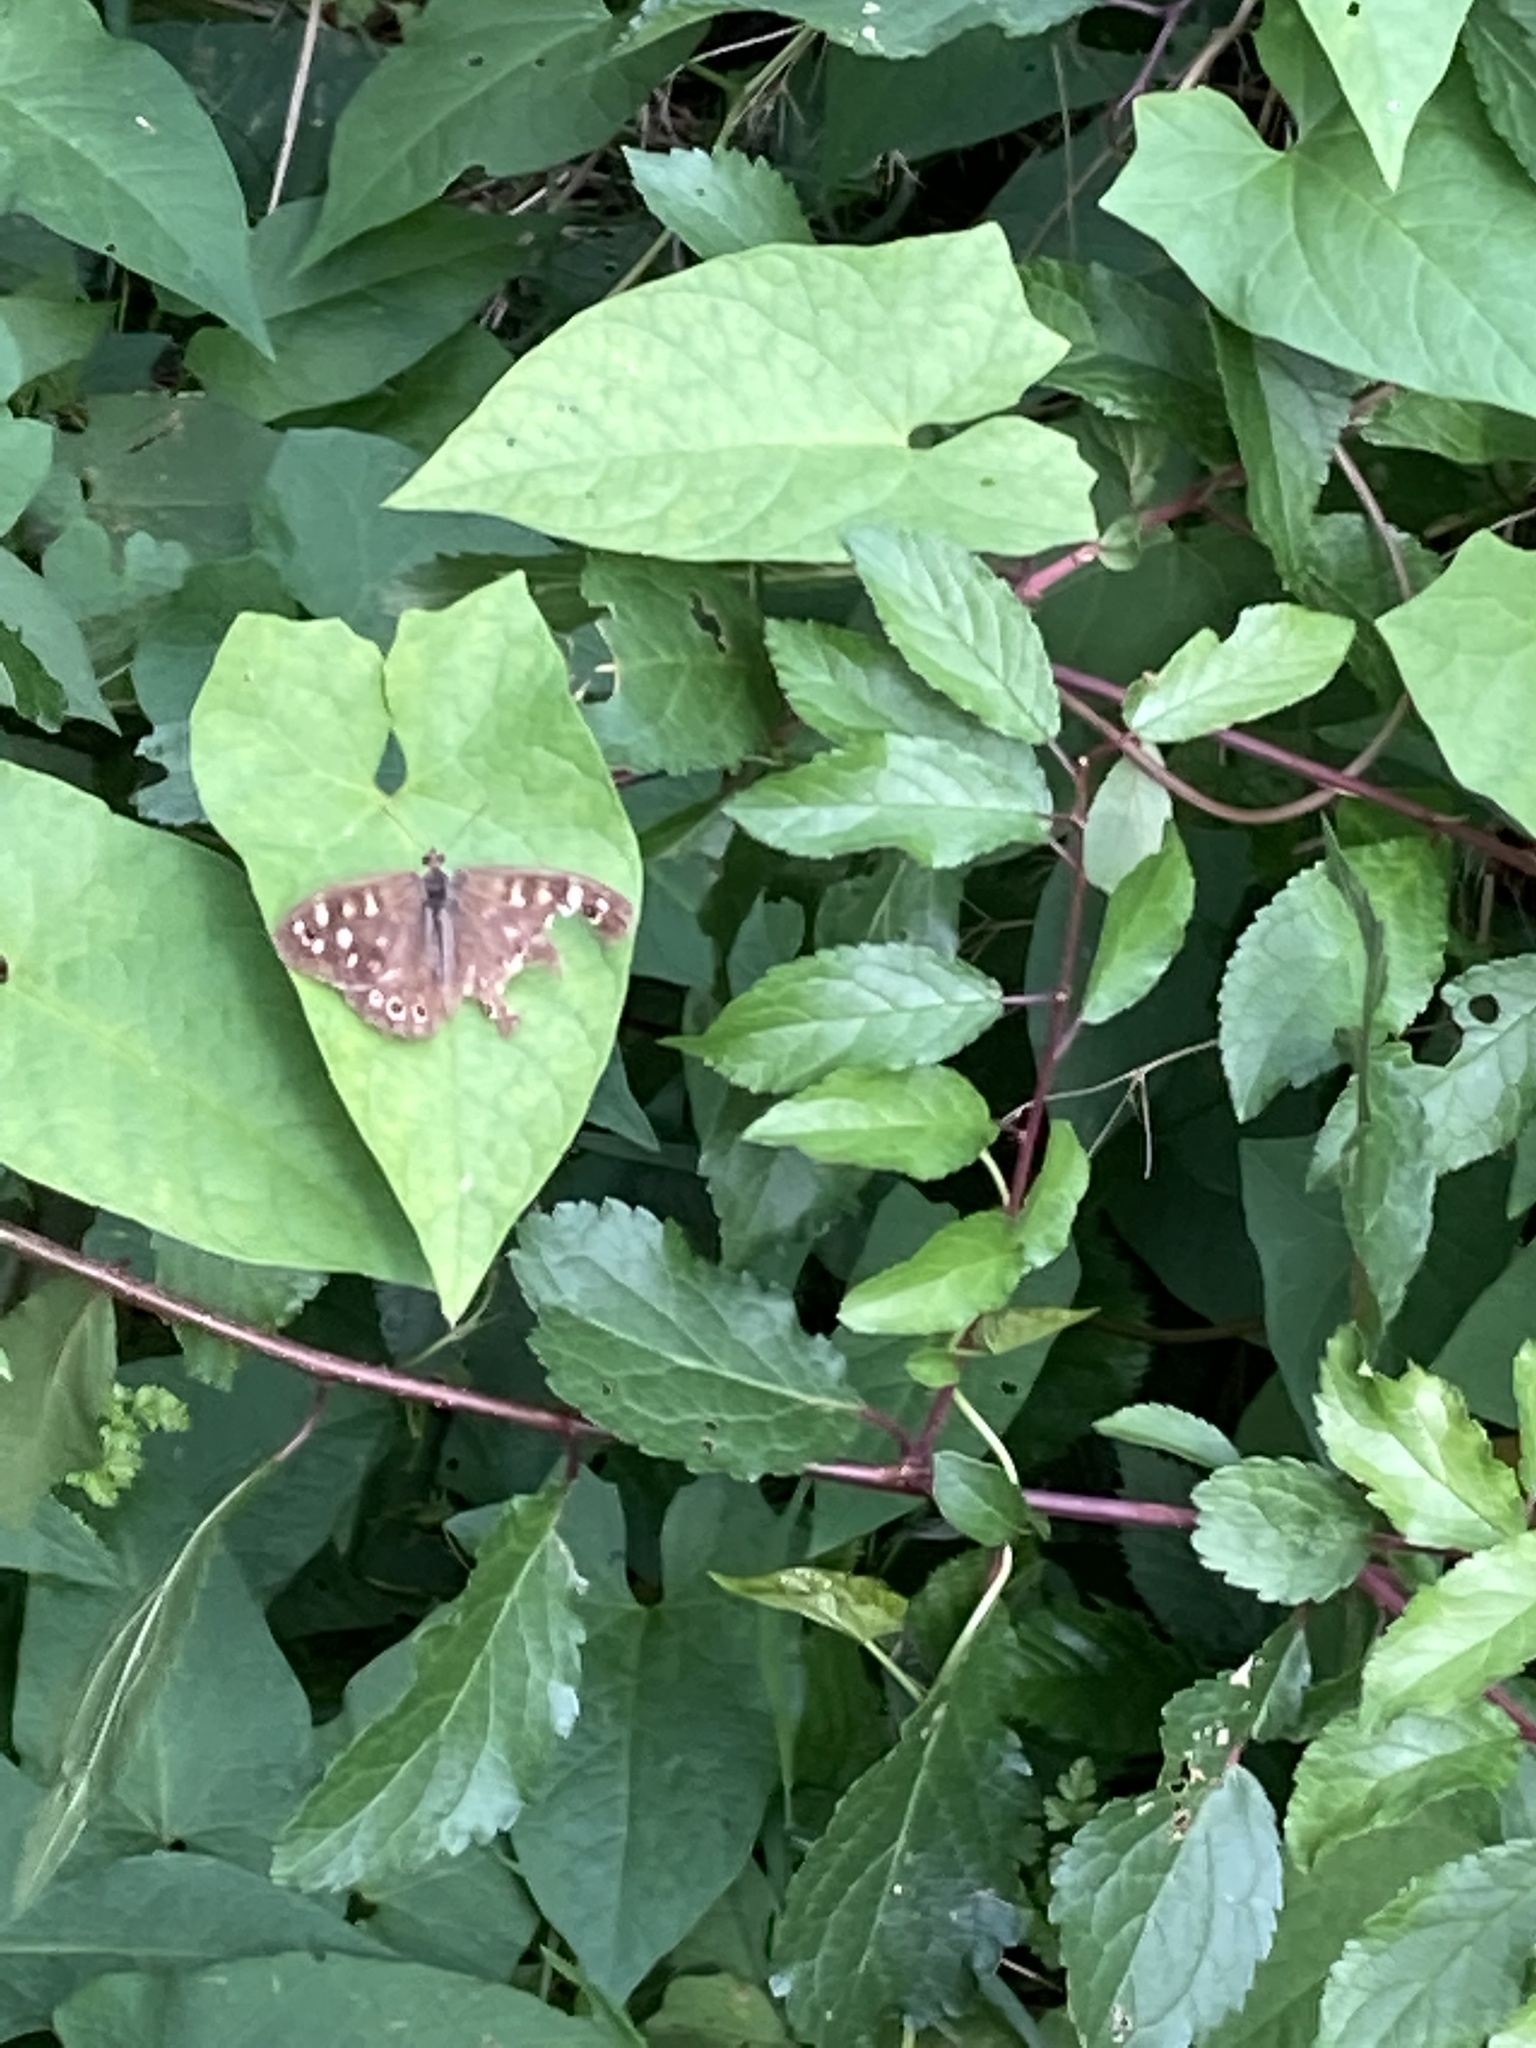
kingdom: Animalia
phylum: Arthropoda
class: Insecta
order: Lepidoptera
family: Nymphalidae
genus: Pararge
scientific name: Pararge aegeria
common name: Speckled wood
